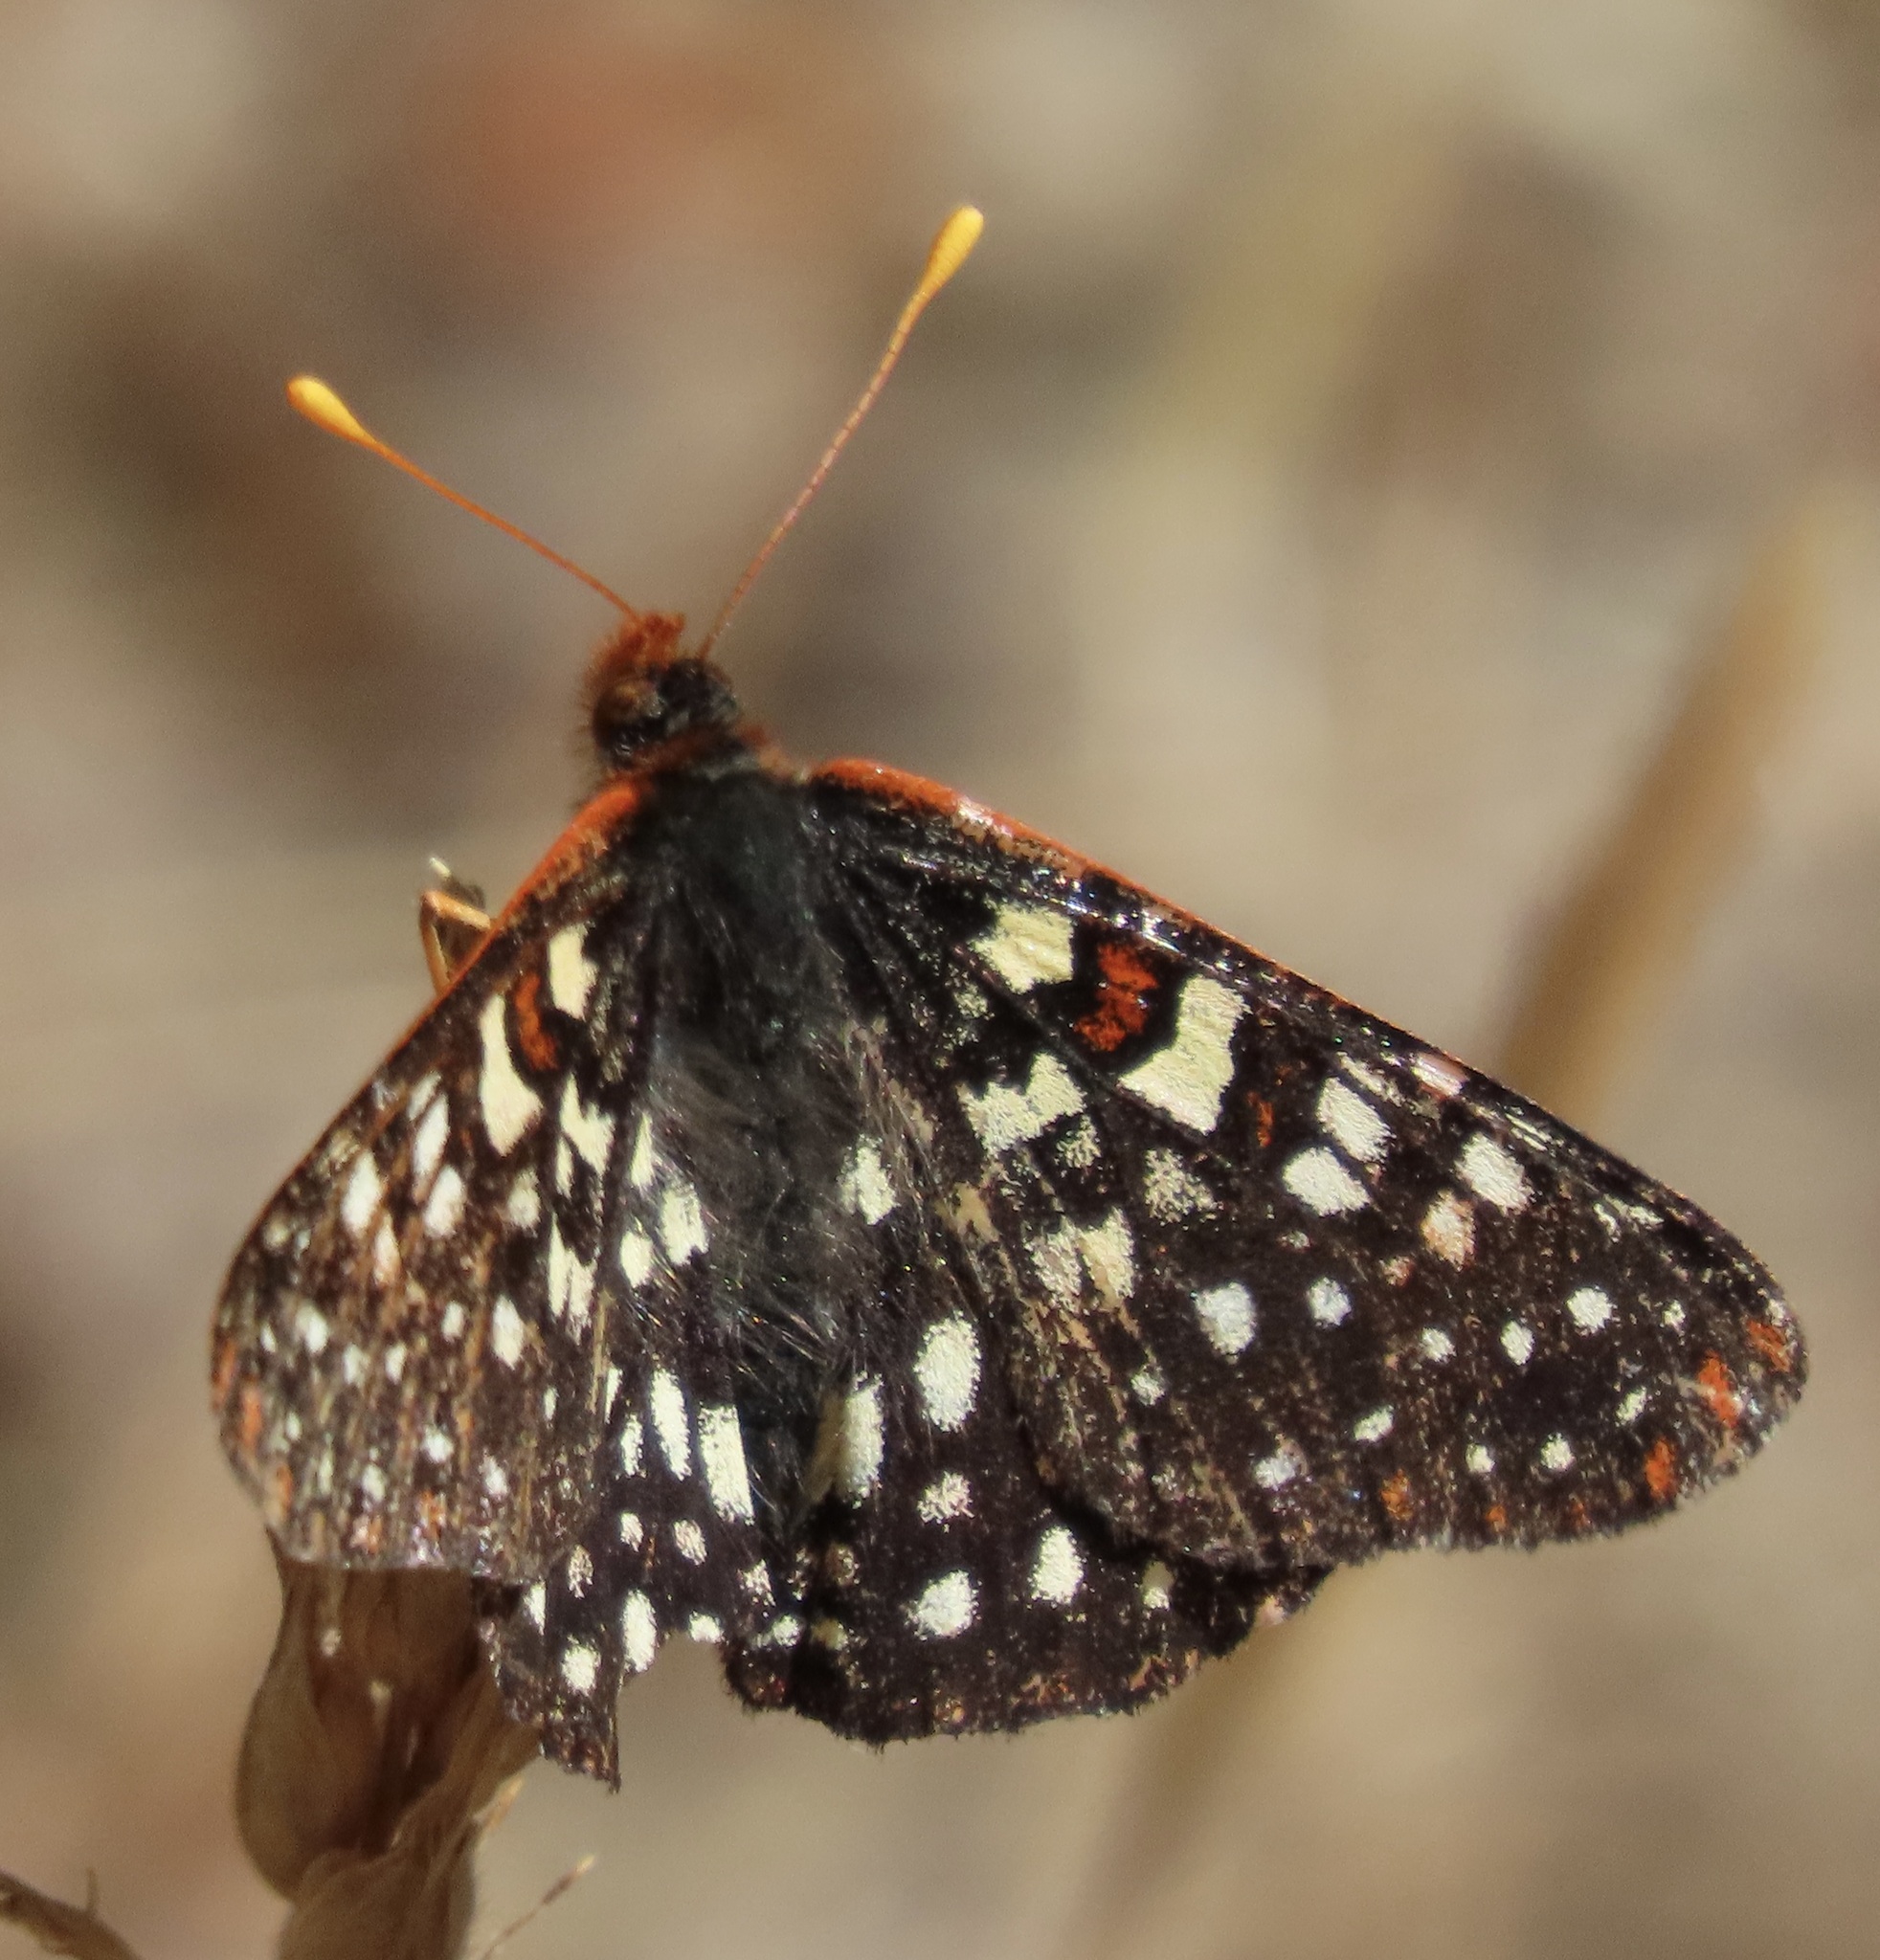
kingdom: Animalia
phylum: Arthropoda
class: Insecta
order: Lepidoptera
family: Nymphalidae
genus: Occidryas
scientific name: Occidryas chalcedona
